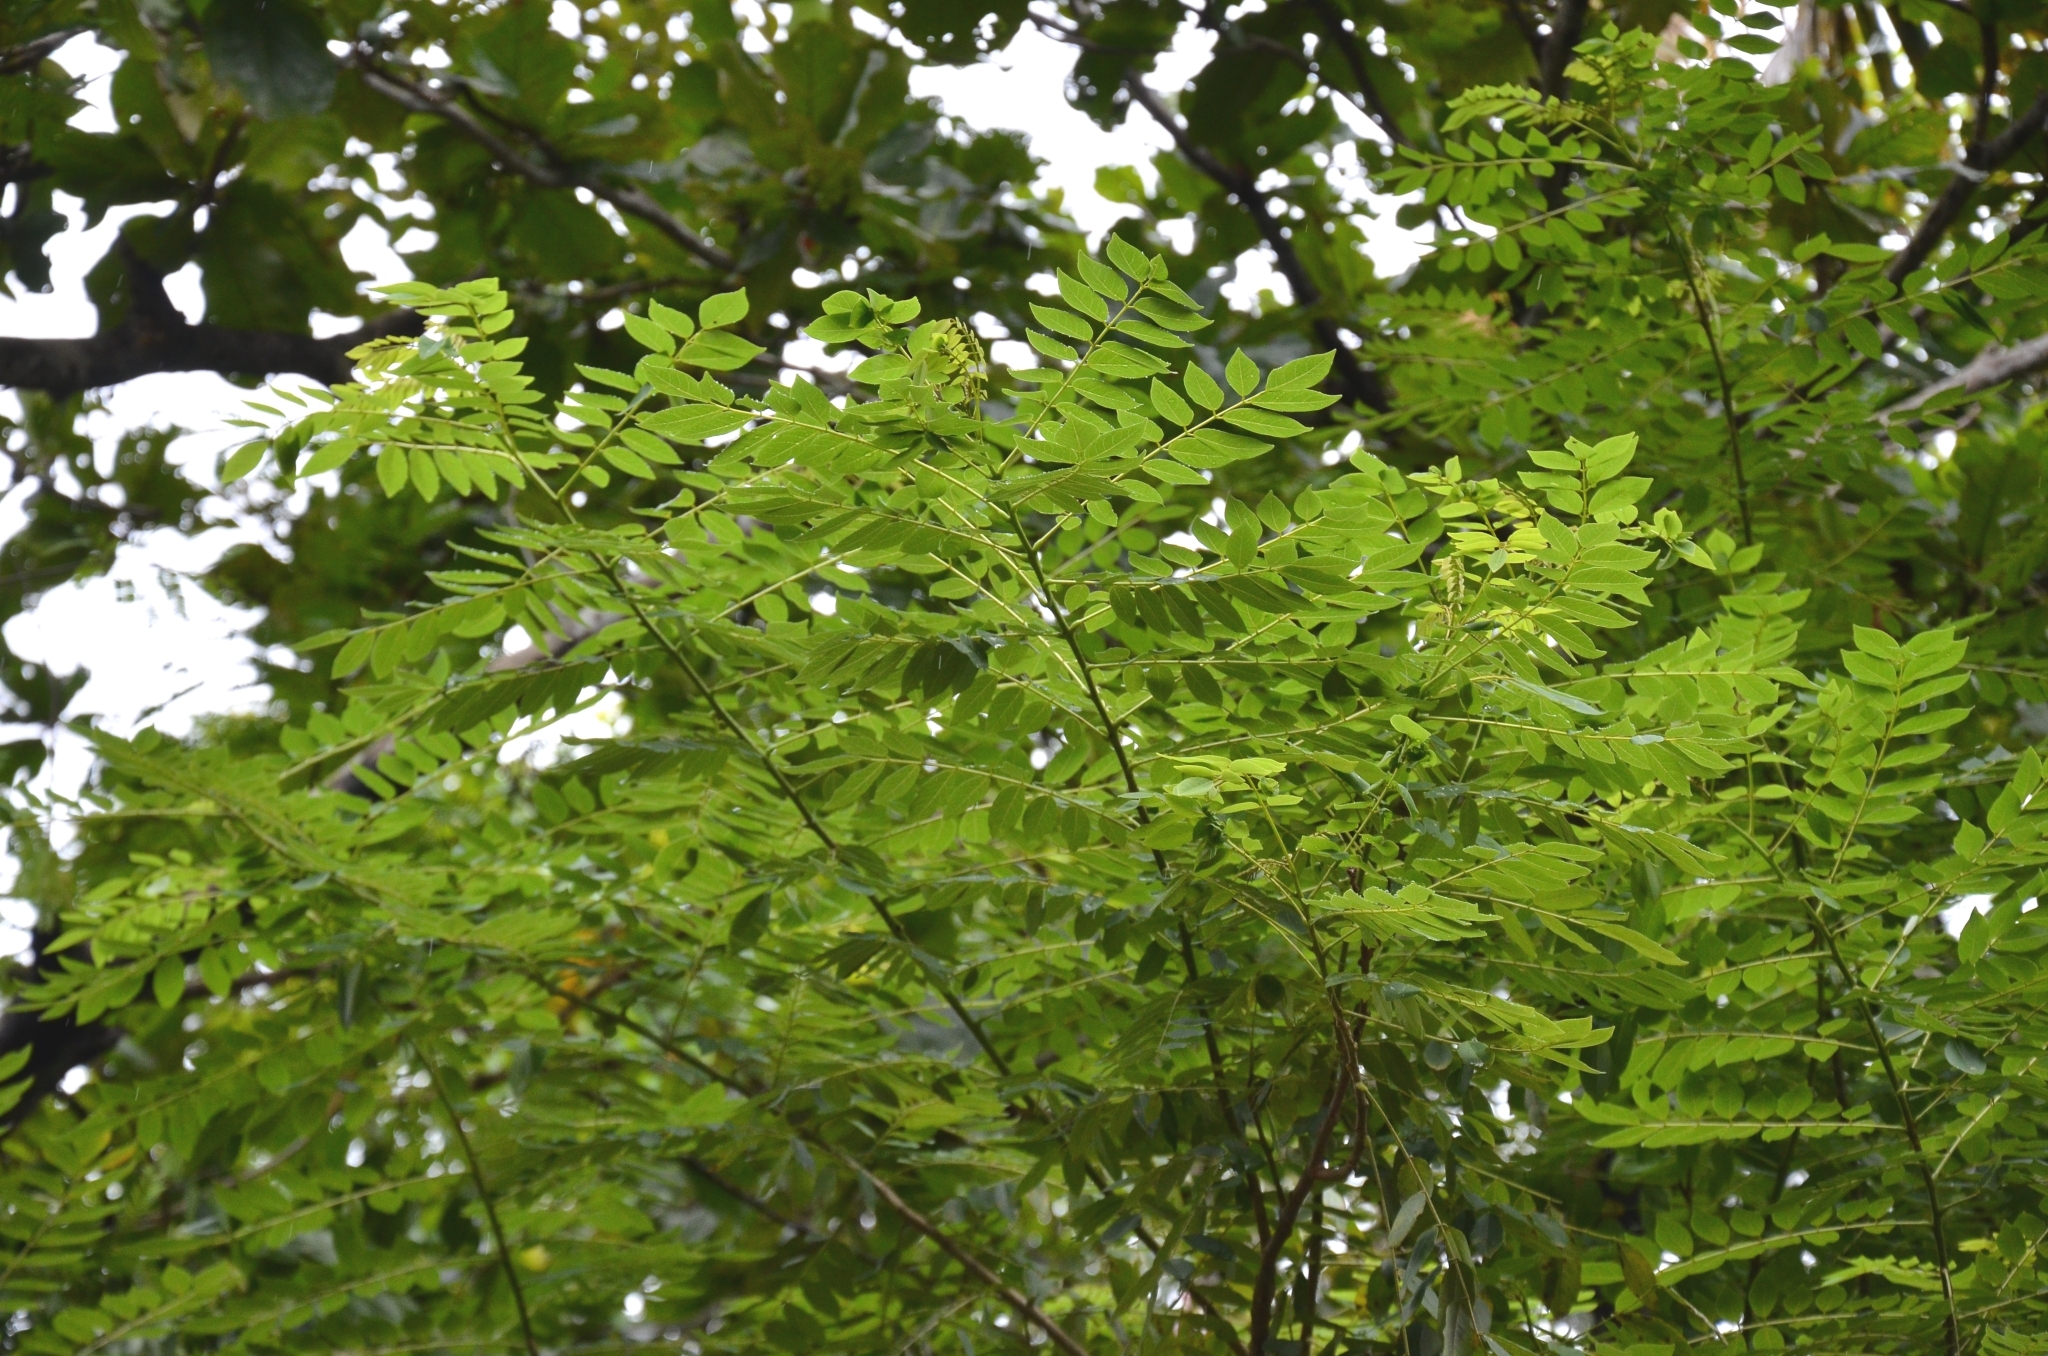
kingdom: Plantae
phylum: Tracheophyta
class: Magnoliopsida
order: Fabales
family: Fabaceae
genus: Gliricidia
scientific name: Gliricidia sepium
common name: Quickstick
